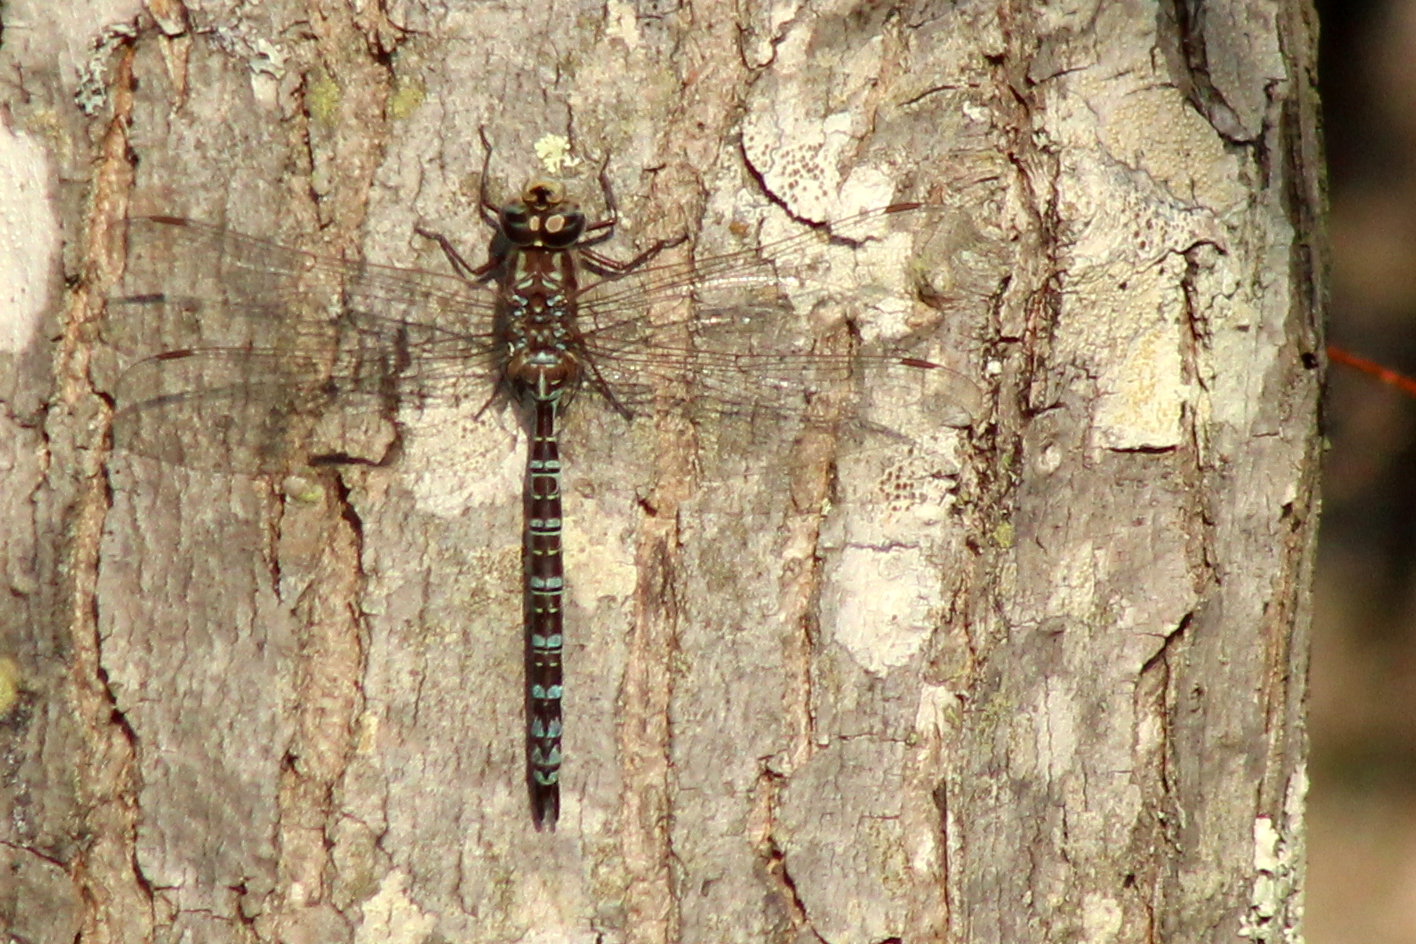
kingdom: Animalia
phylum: Arthropoda
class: Insecta
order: Odonata
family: Aeshnidae
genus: Aeshna
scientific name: Aeshna clepsydra
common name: Mottled darner
